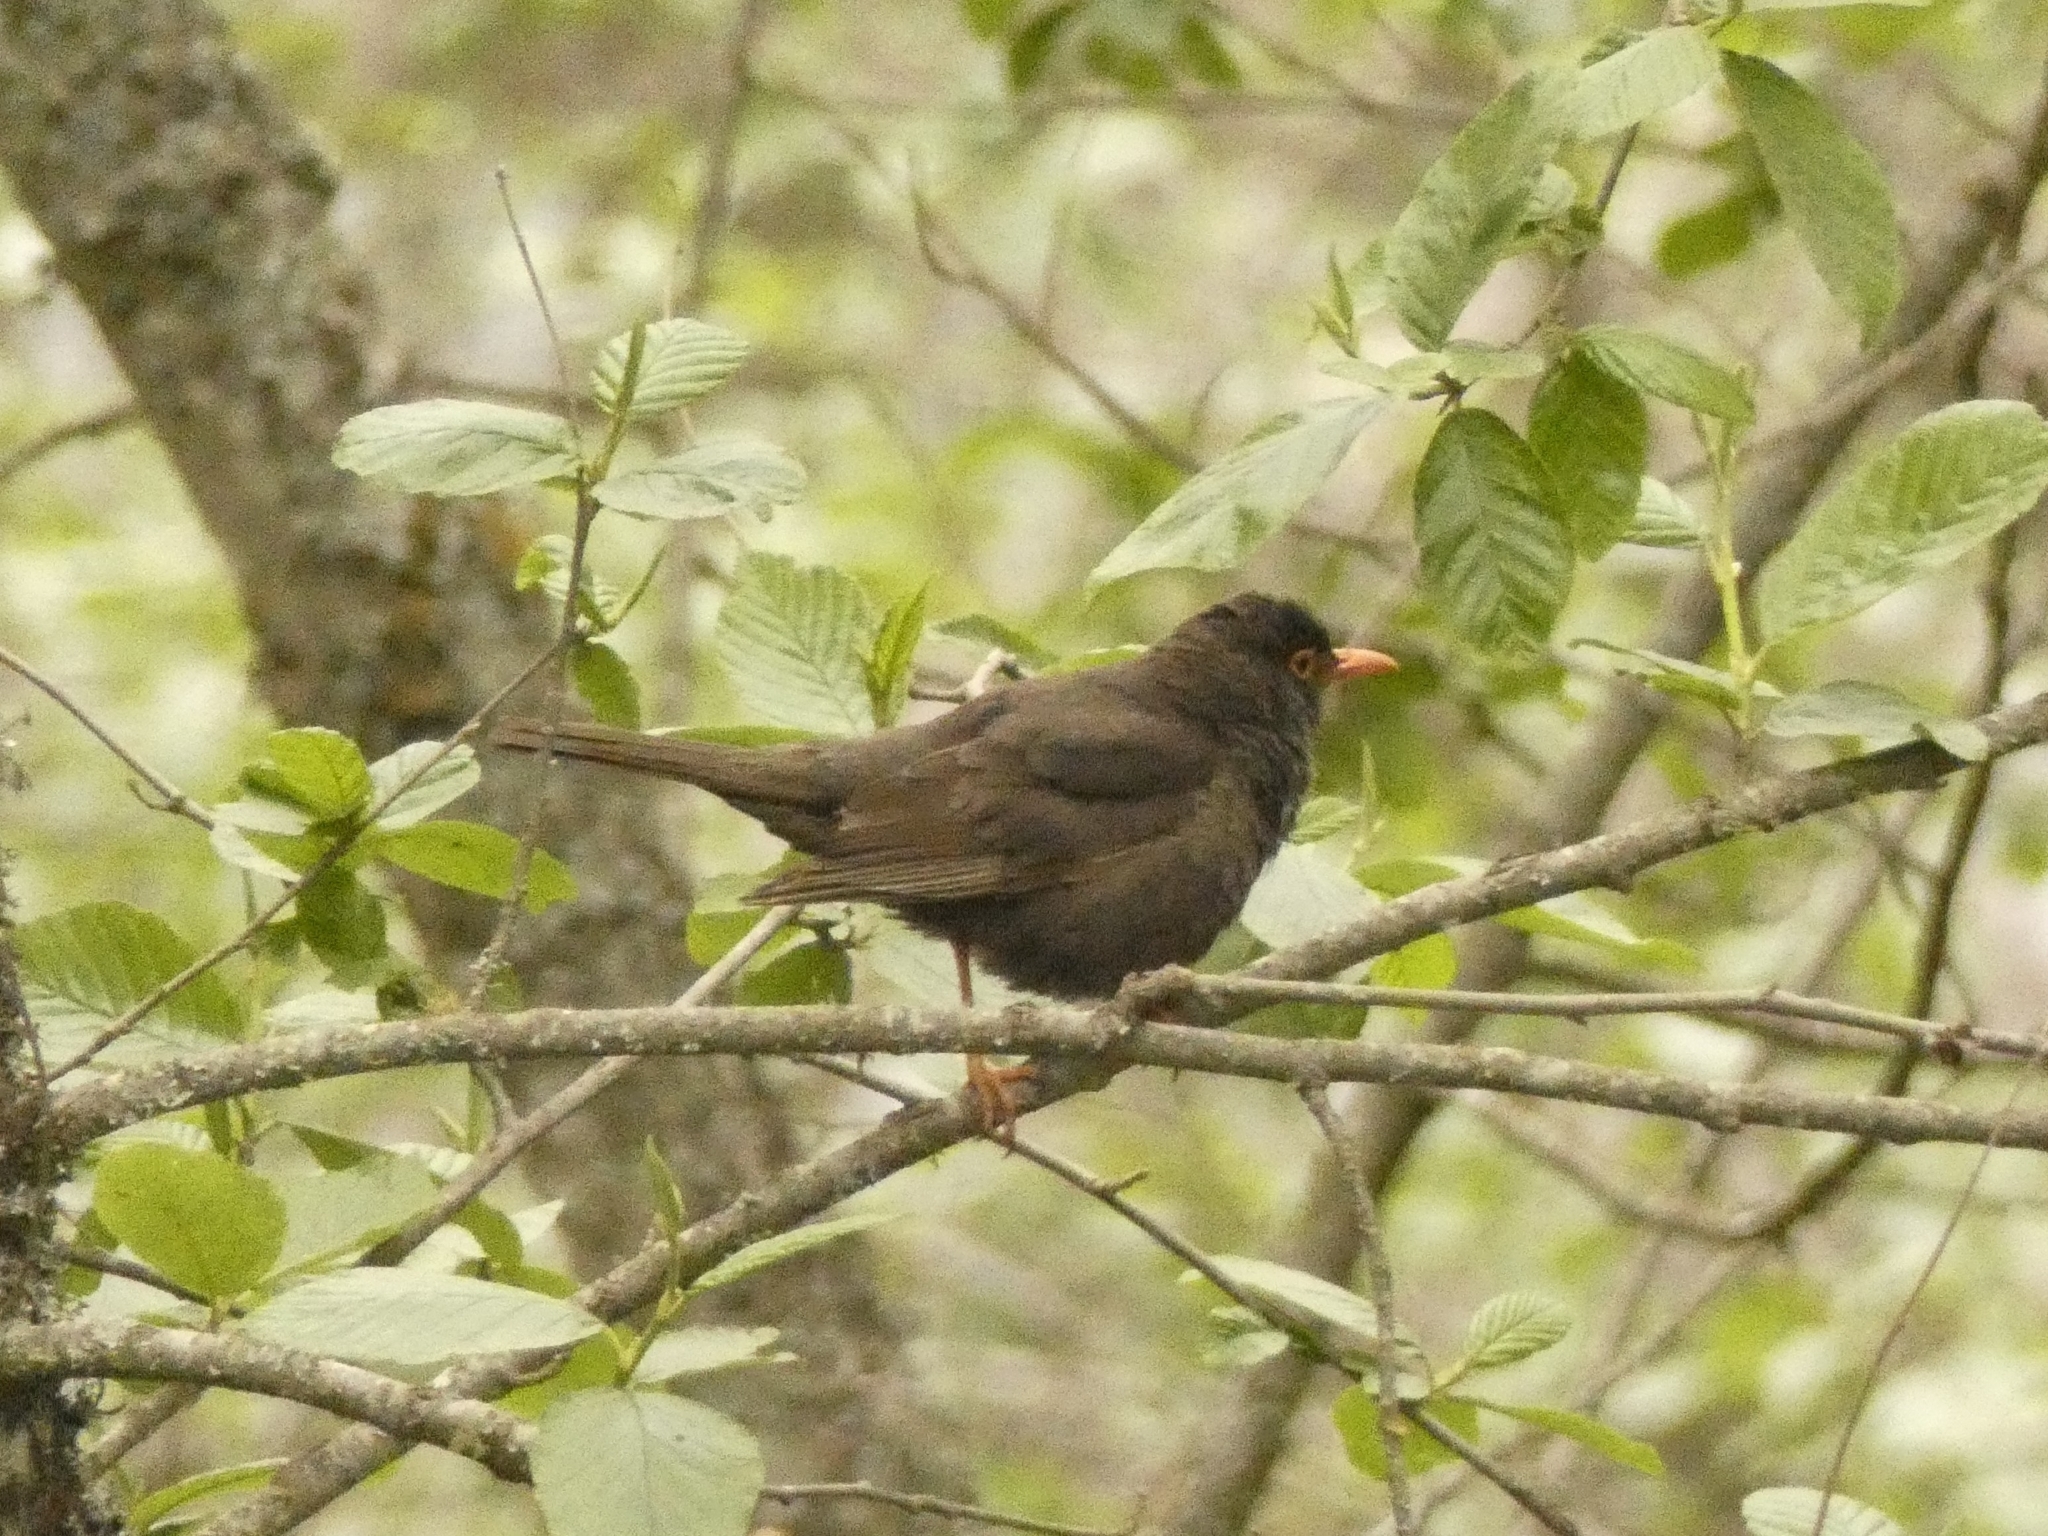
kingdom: Animalia
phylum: Chordata
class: Aves
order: Passeriformes
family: Turdidae
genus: Turdus
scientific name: Turdus chiguanco
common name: Chiguanco thrush
